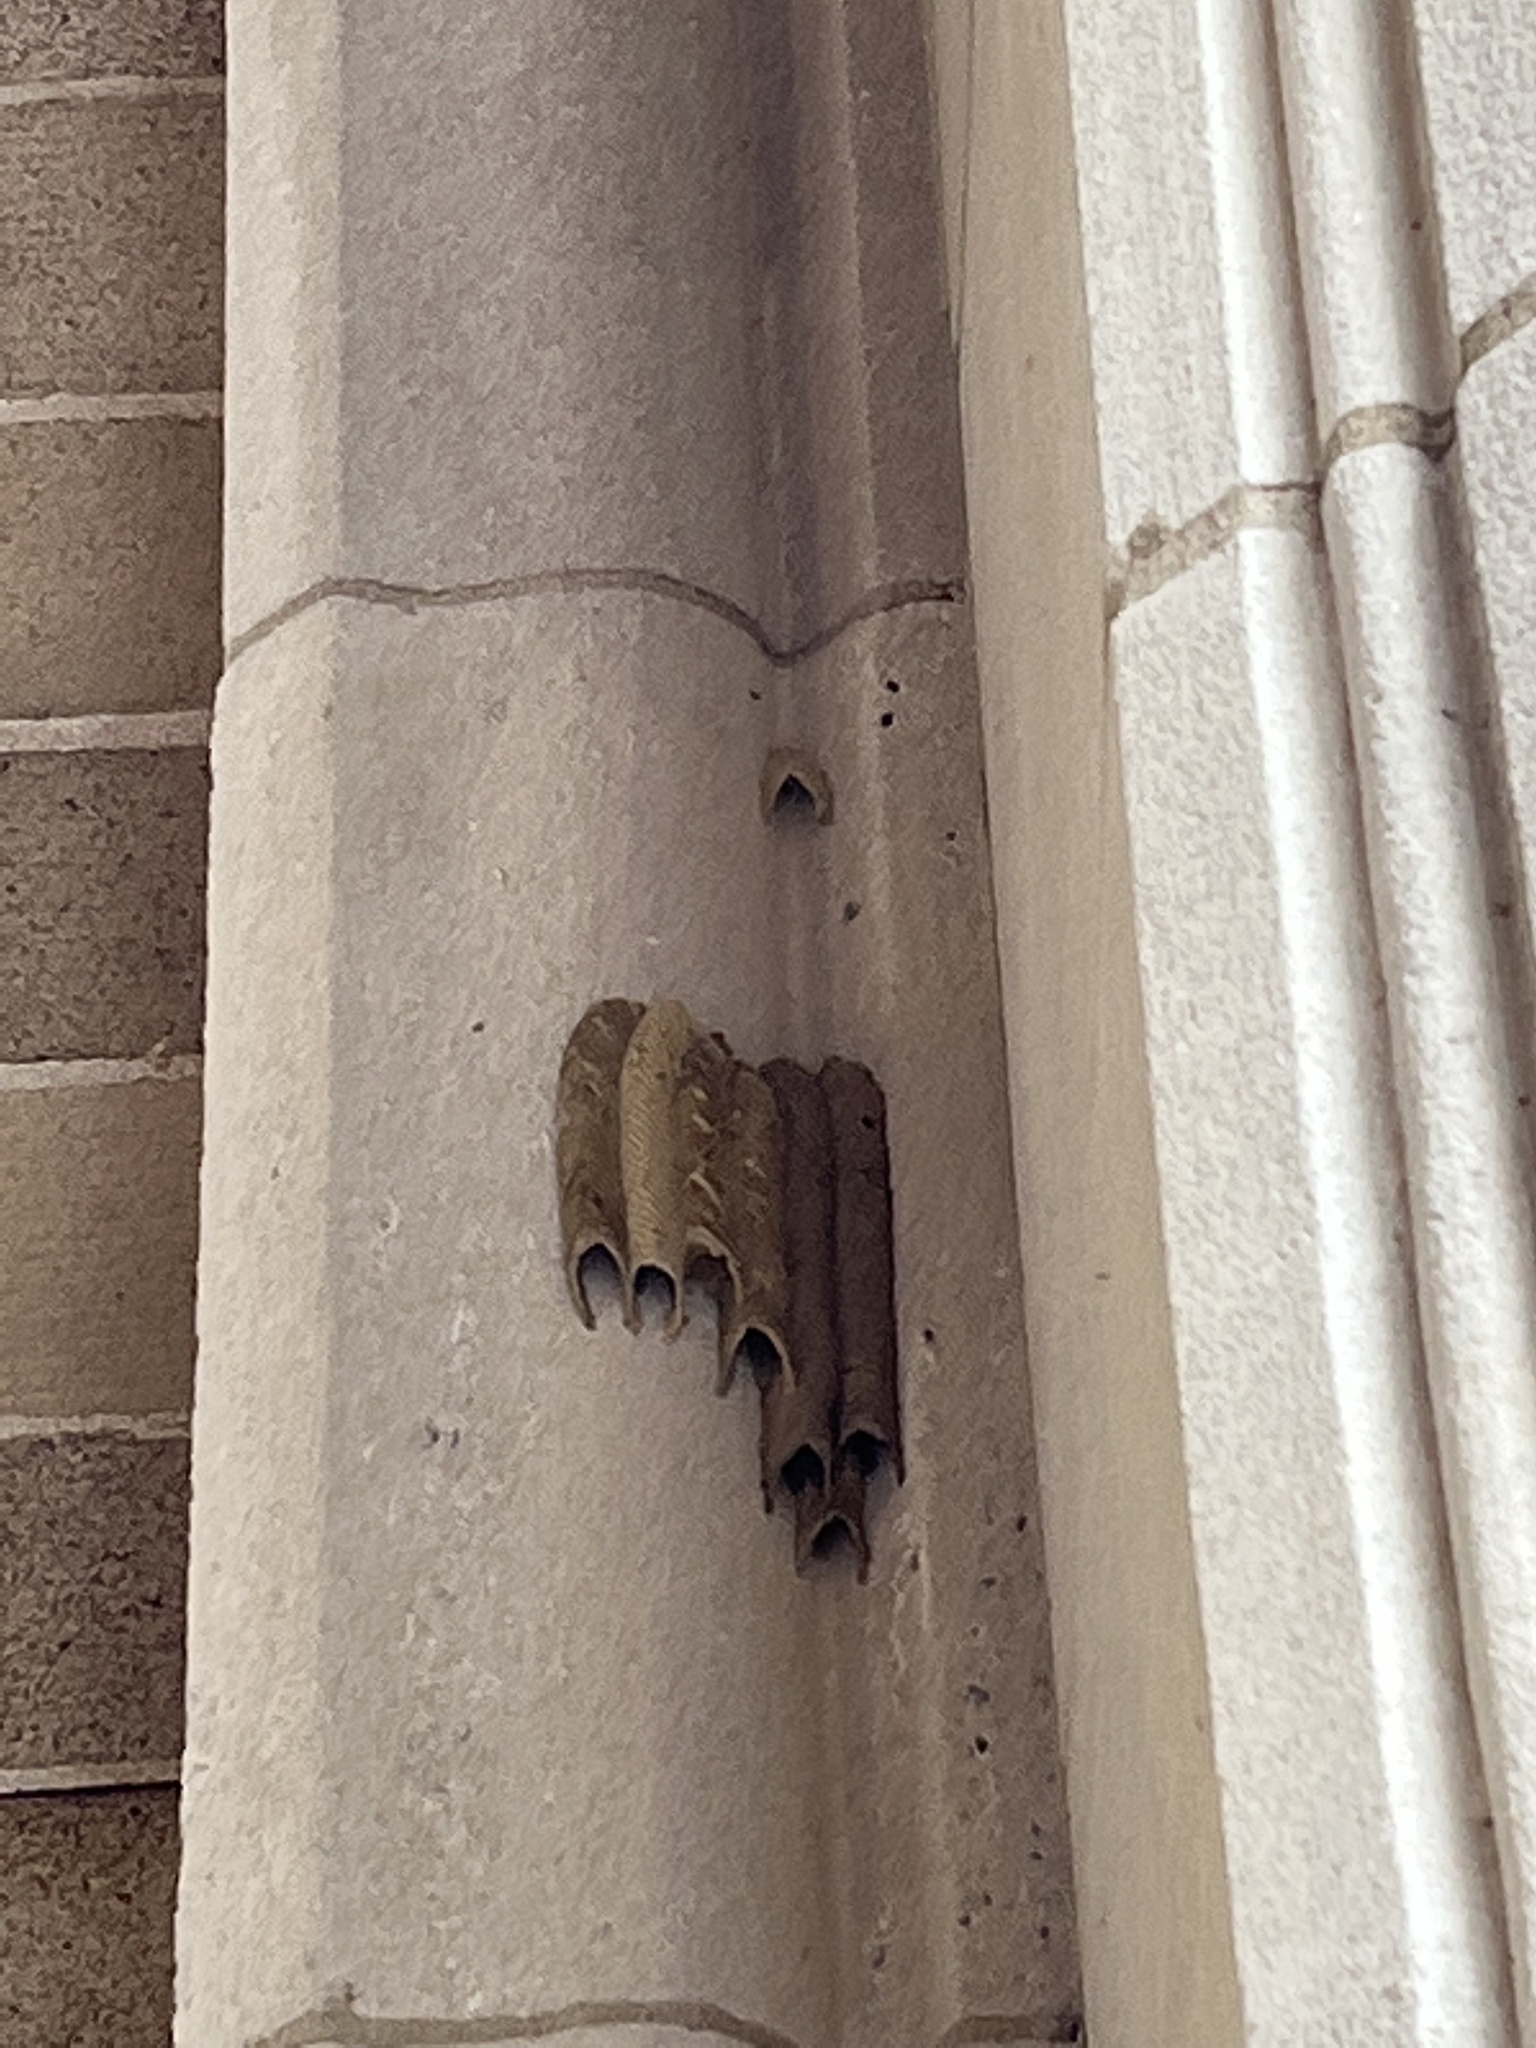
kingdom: Animalia
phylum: Arthropoda
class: Insecta
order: Hymenoptera
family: Crabronidae
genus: Trypoxylon
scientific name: Trypoxylon politum
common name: Organ-pipe mud-dauber wasp
